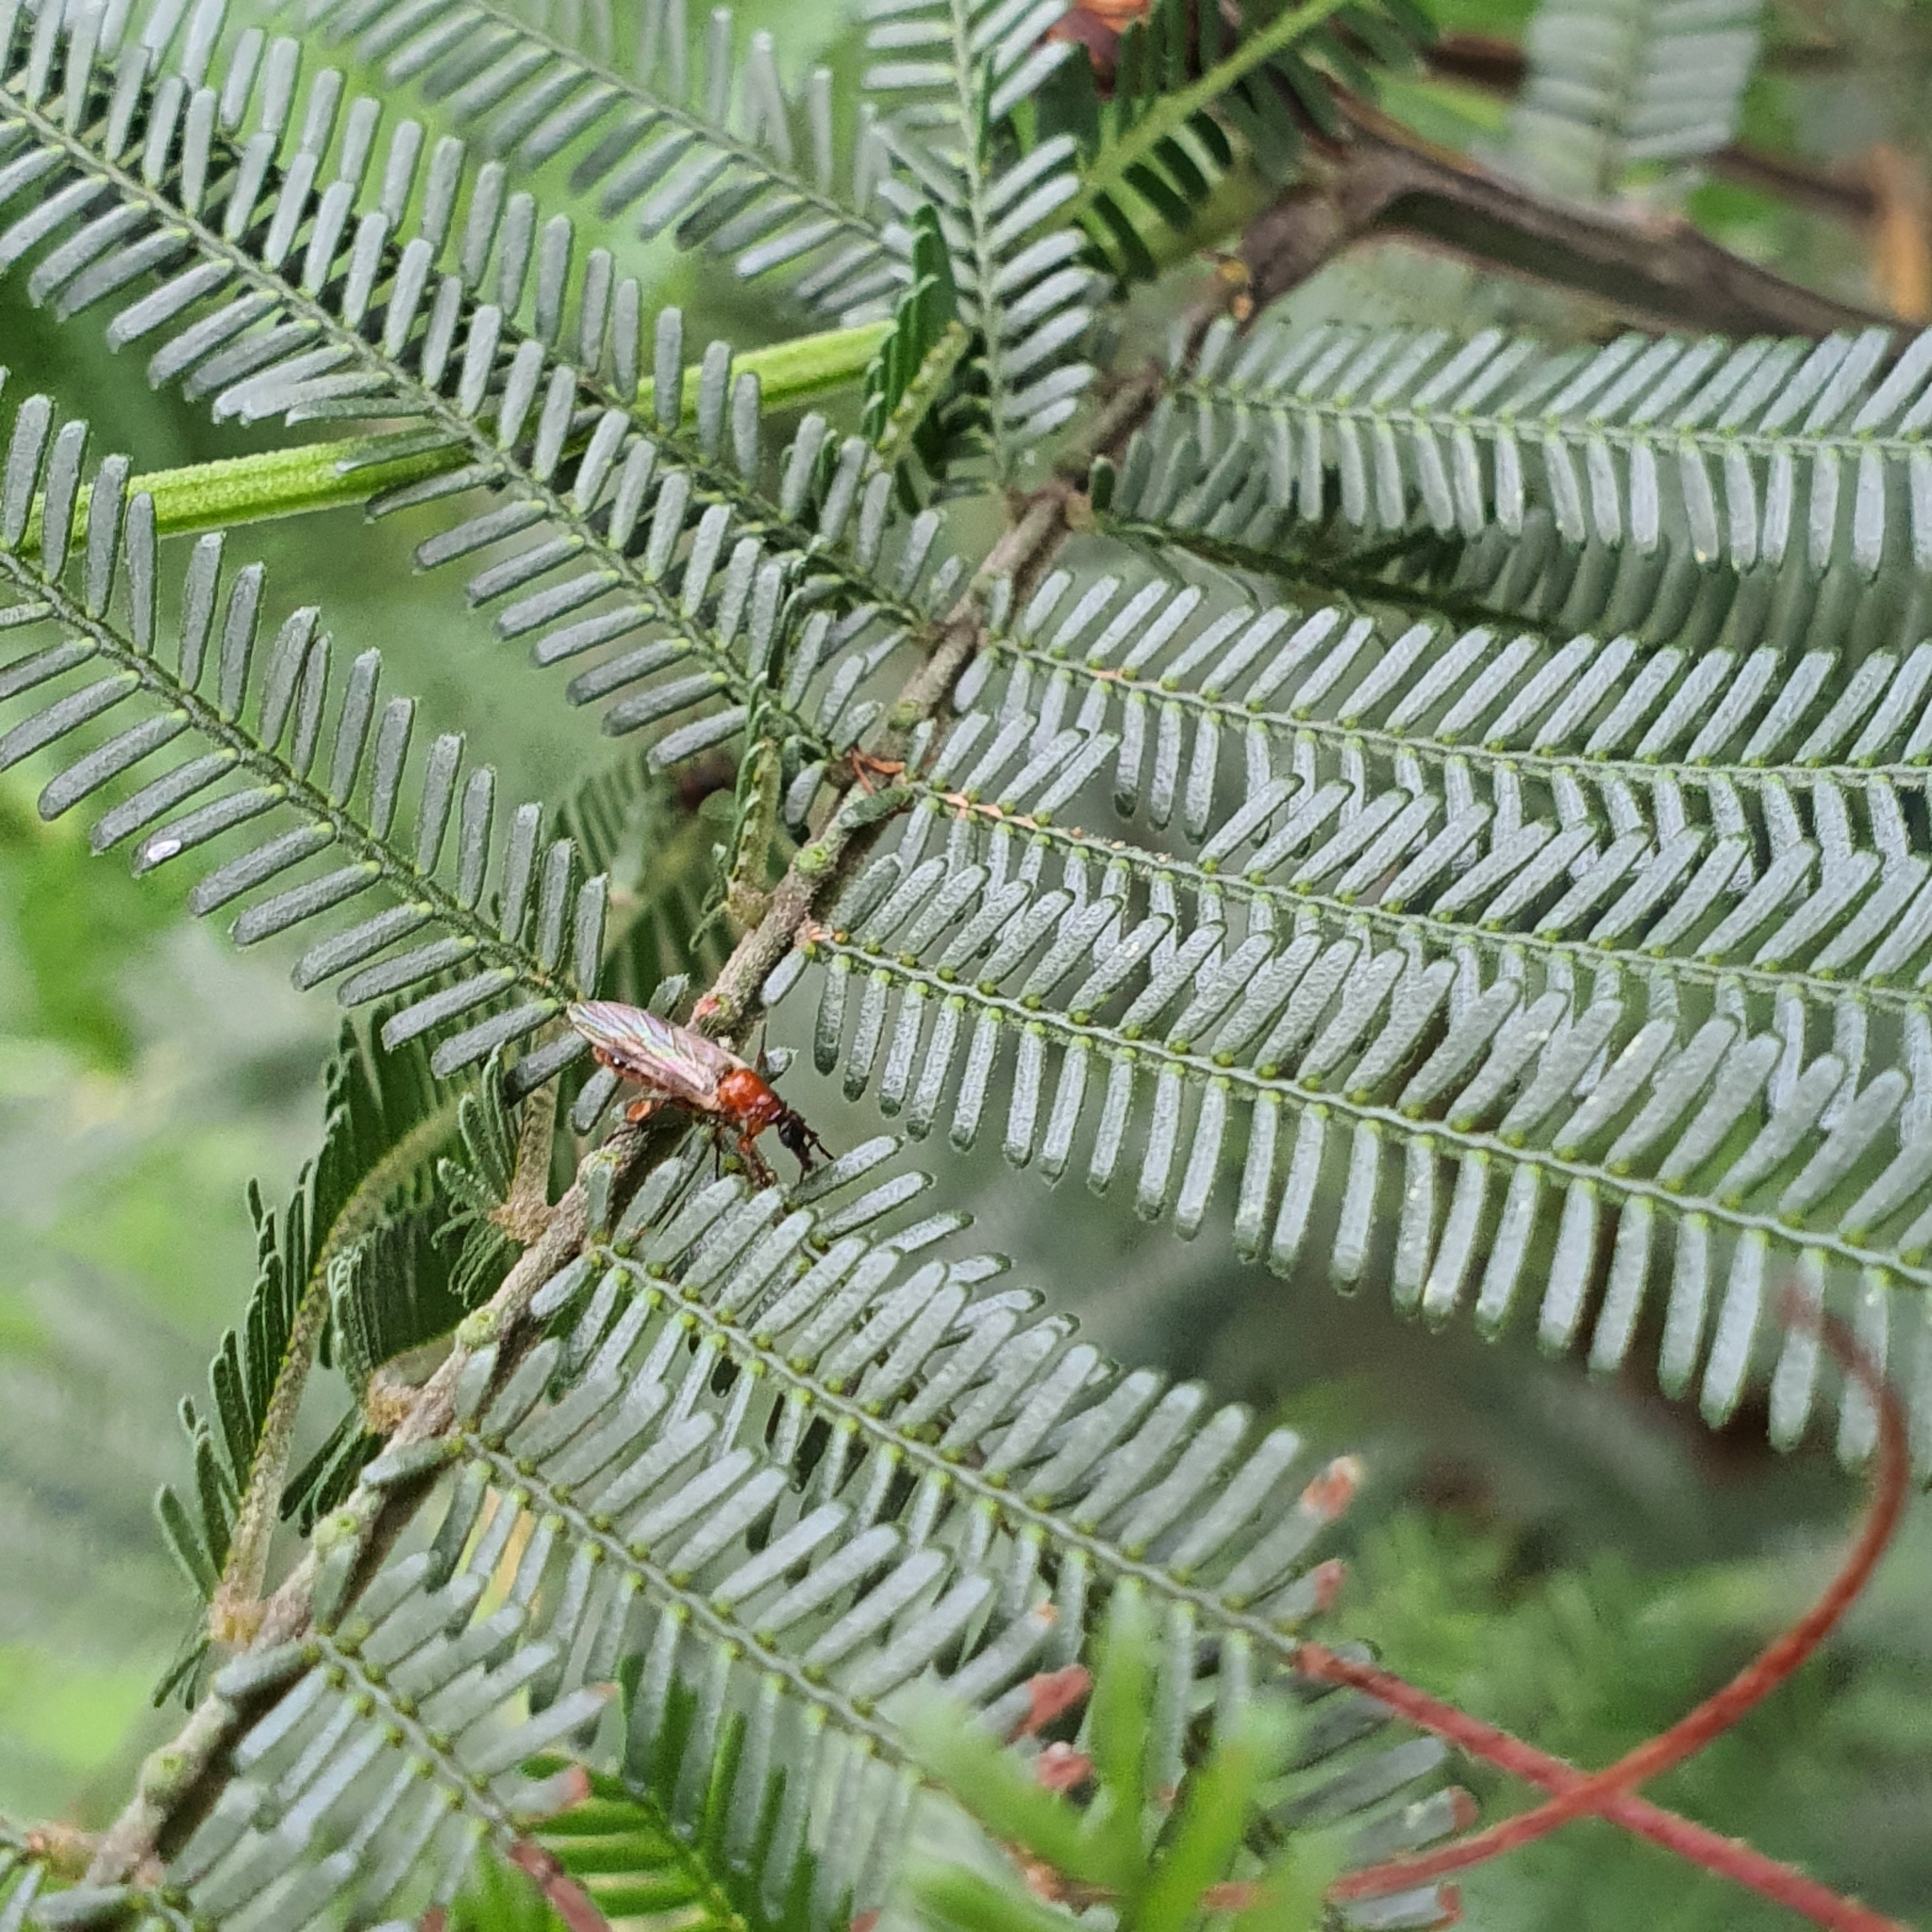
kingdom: Animalia
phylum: Arthropoda
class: Insecta
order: Diptera
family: Bibionidae
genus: Bibio
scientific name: Bibio imitator
